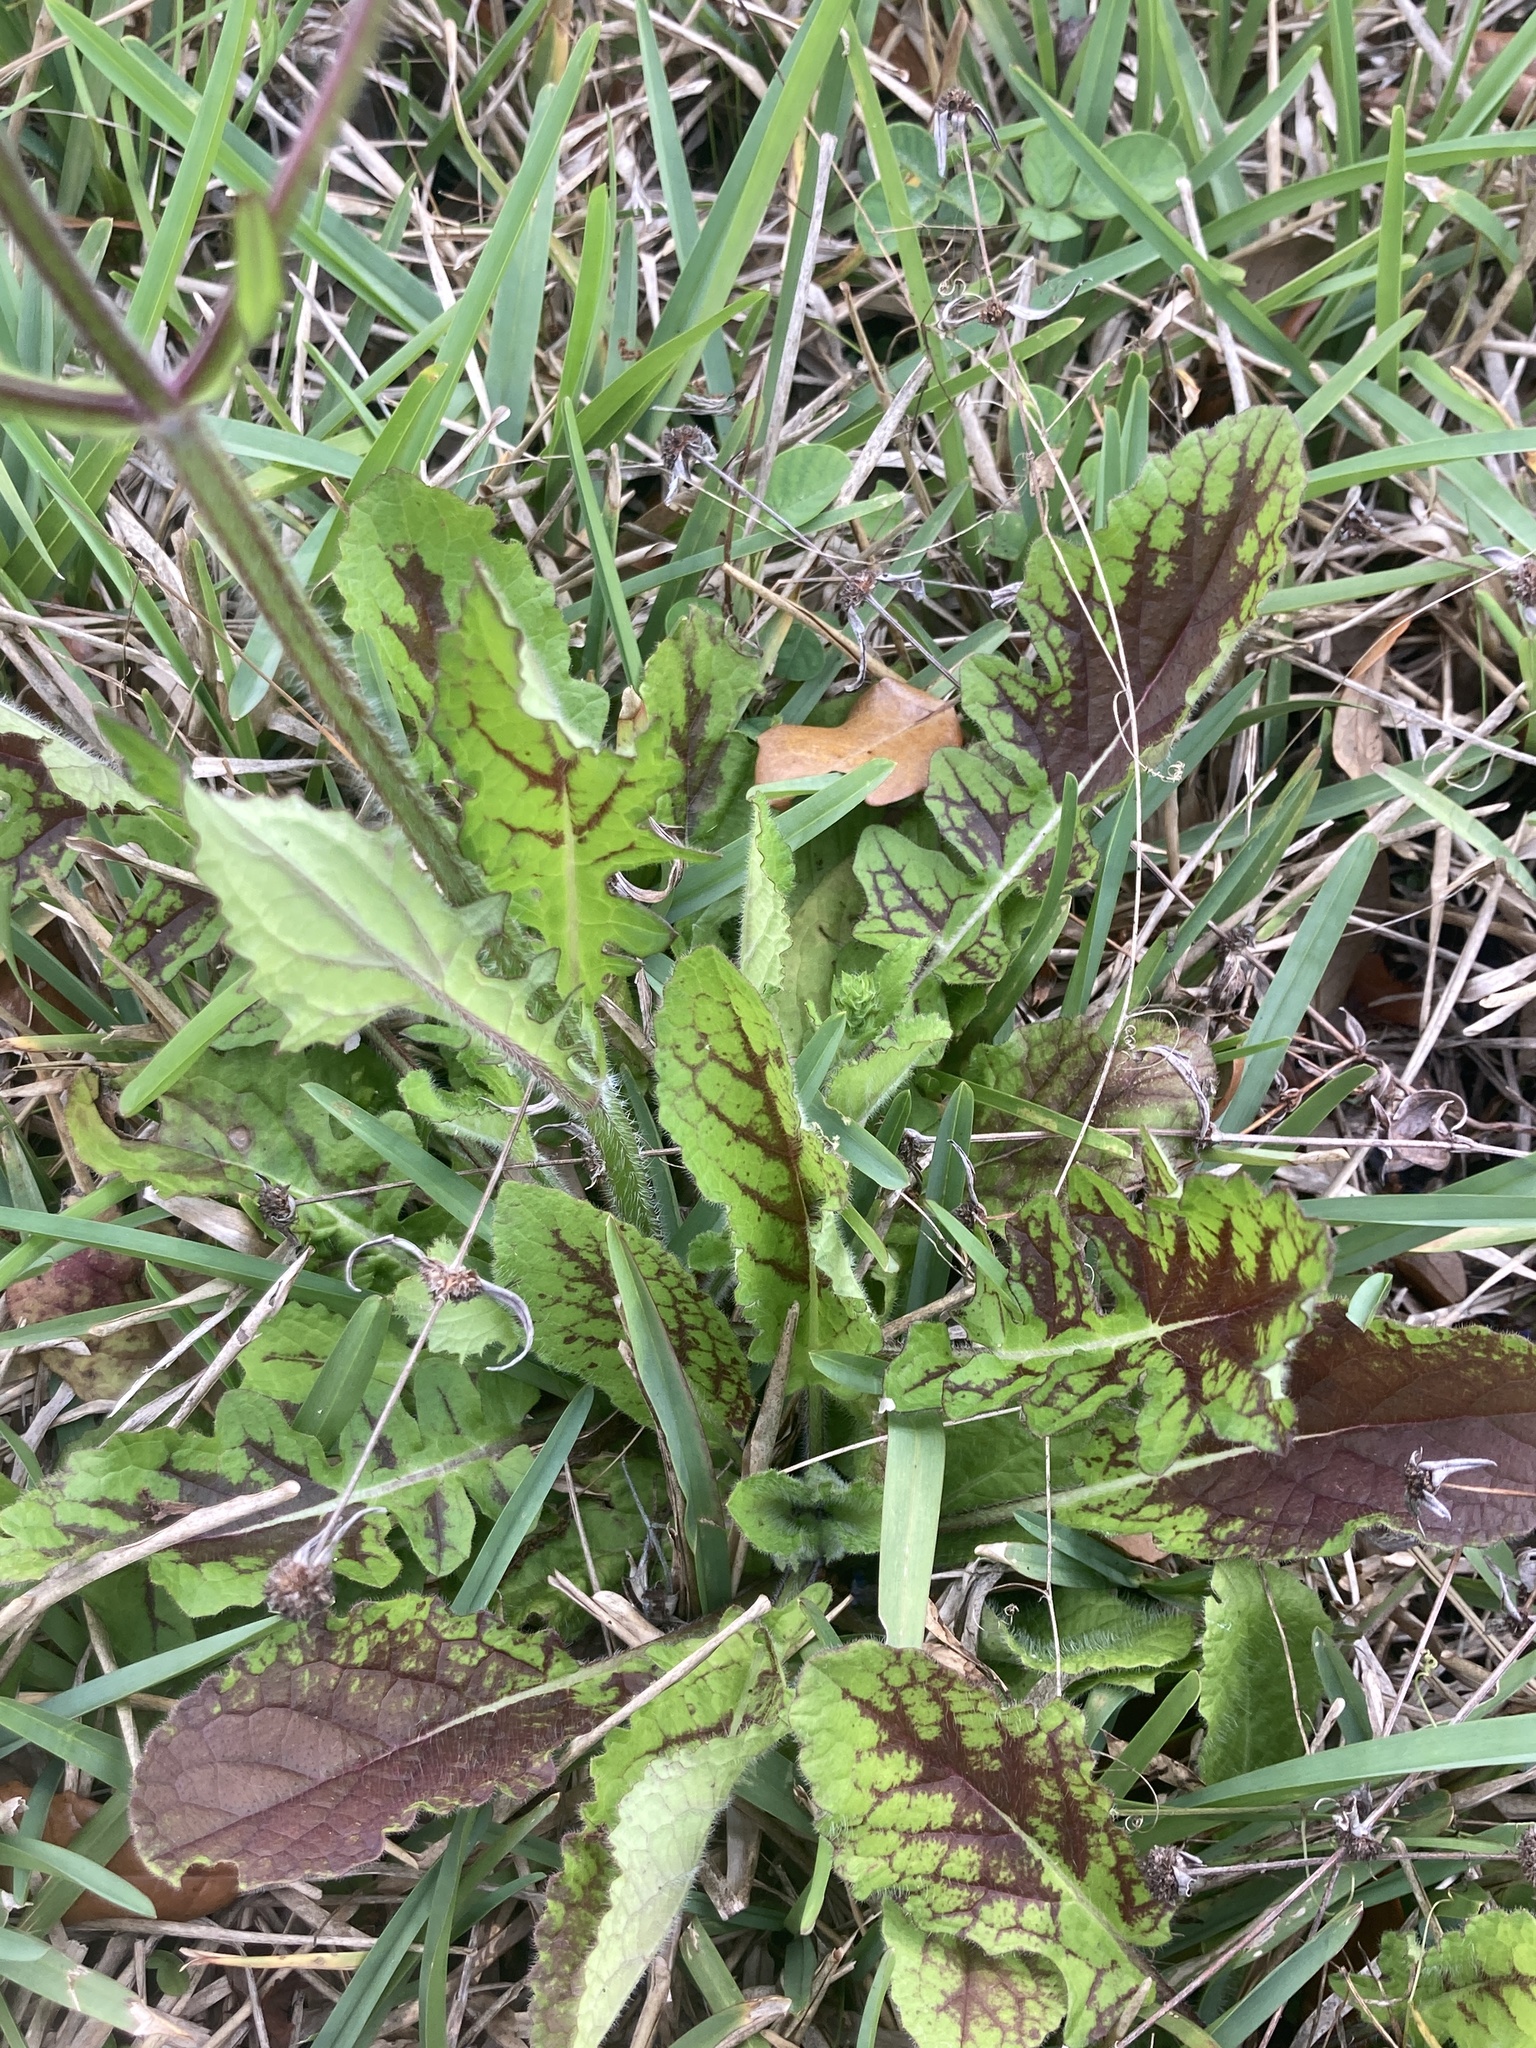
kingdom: Plantae
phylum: Tracheophyta
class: Magnoliopsida
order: Lamiales
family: Lamiaceae
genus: Salvia
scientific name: Salvia lyrata
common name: Cancerweed
